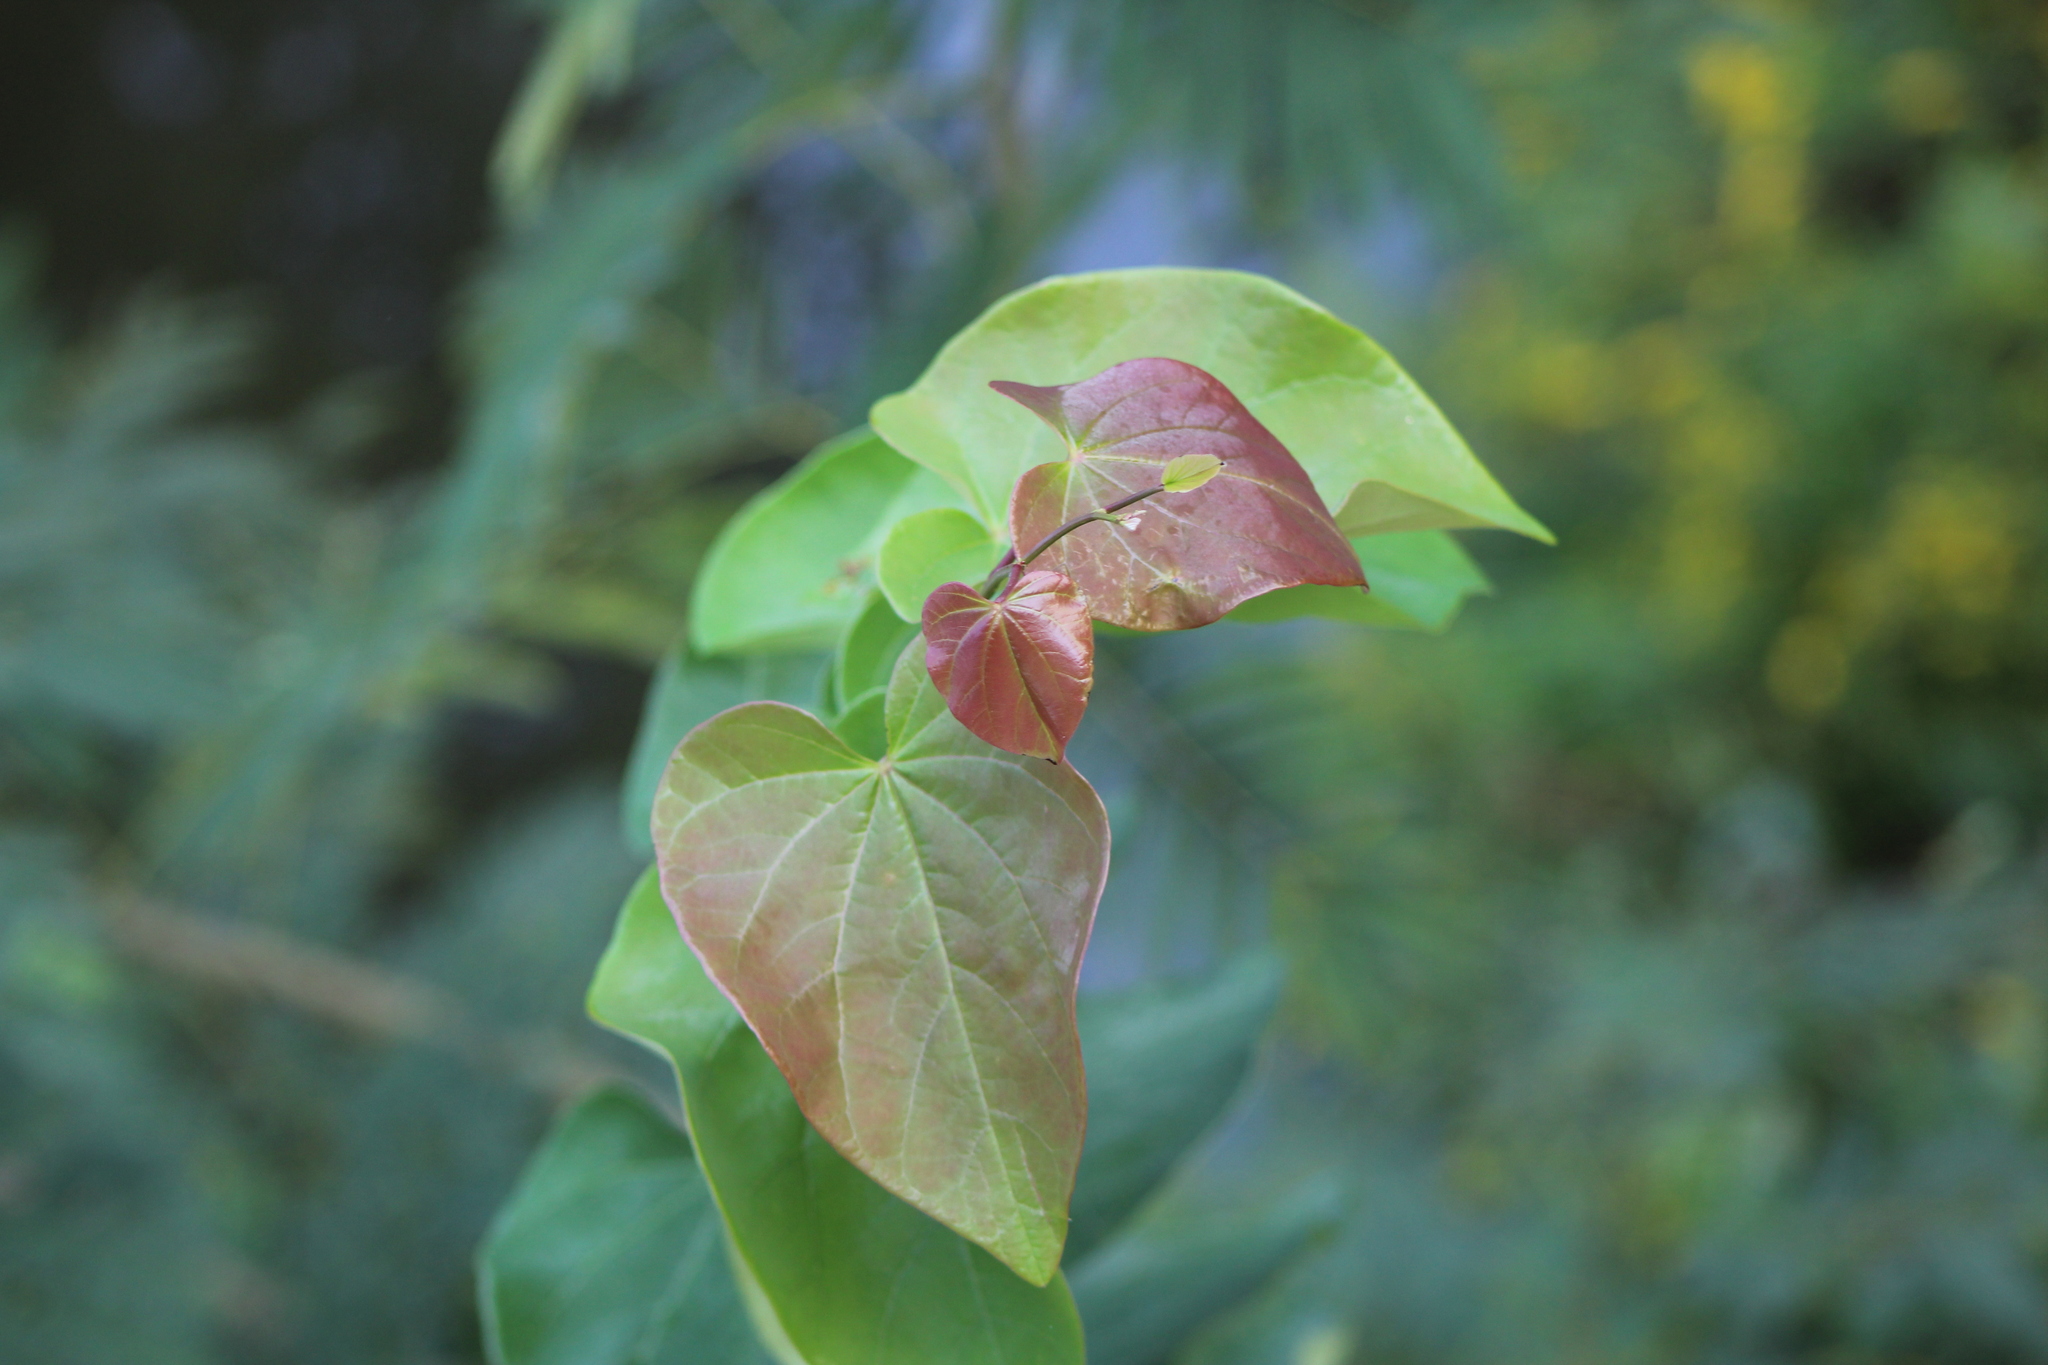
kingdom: Plantae
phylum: Tracheophyta
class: Magnoliopsida
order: Fabales
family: Fabaceae
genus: Cercis
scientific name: Cercis canadensis
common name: Eastern redbud
